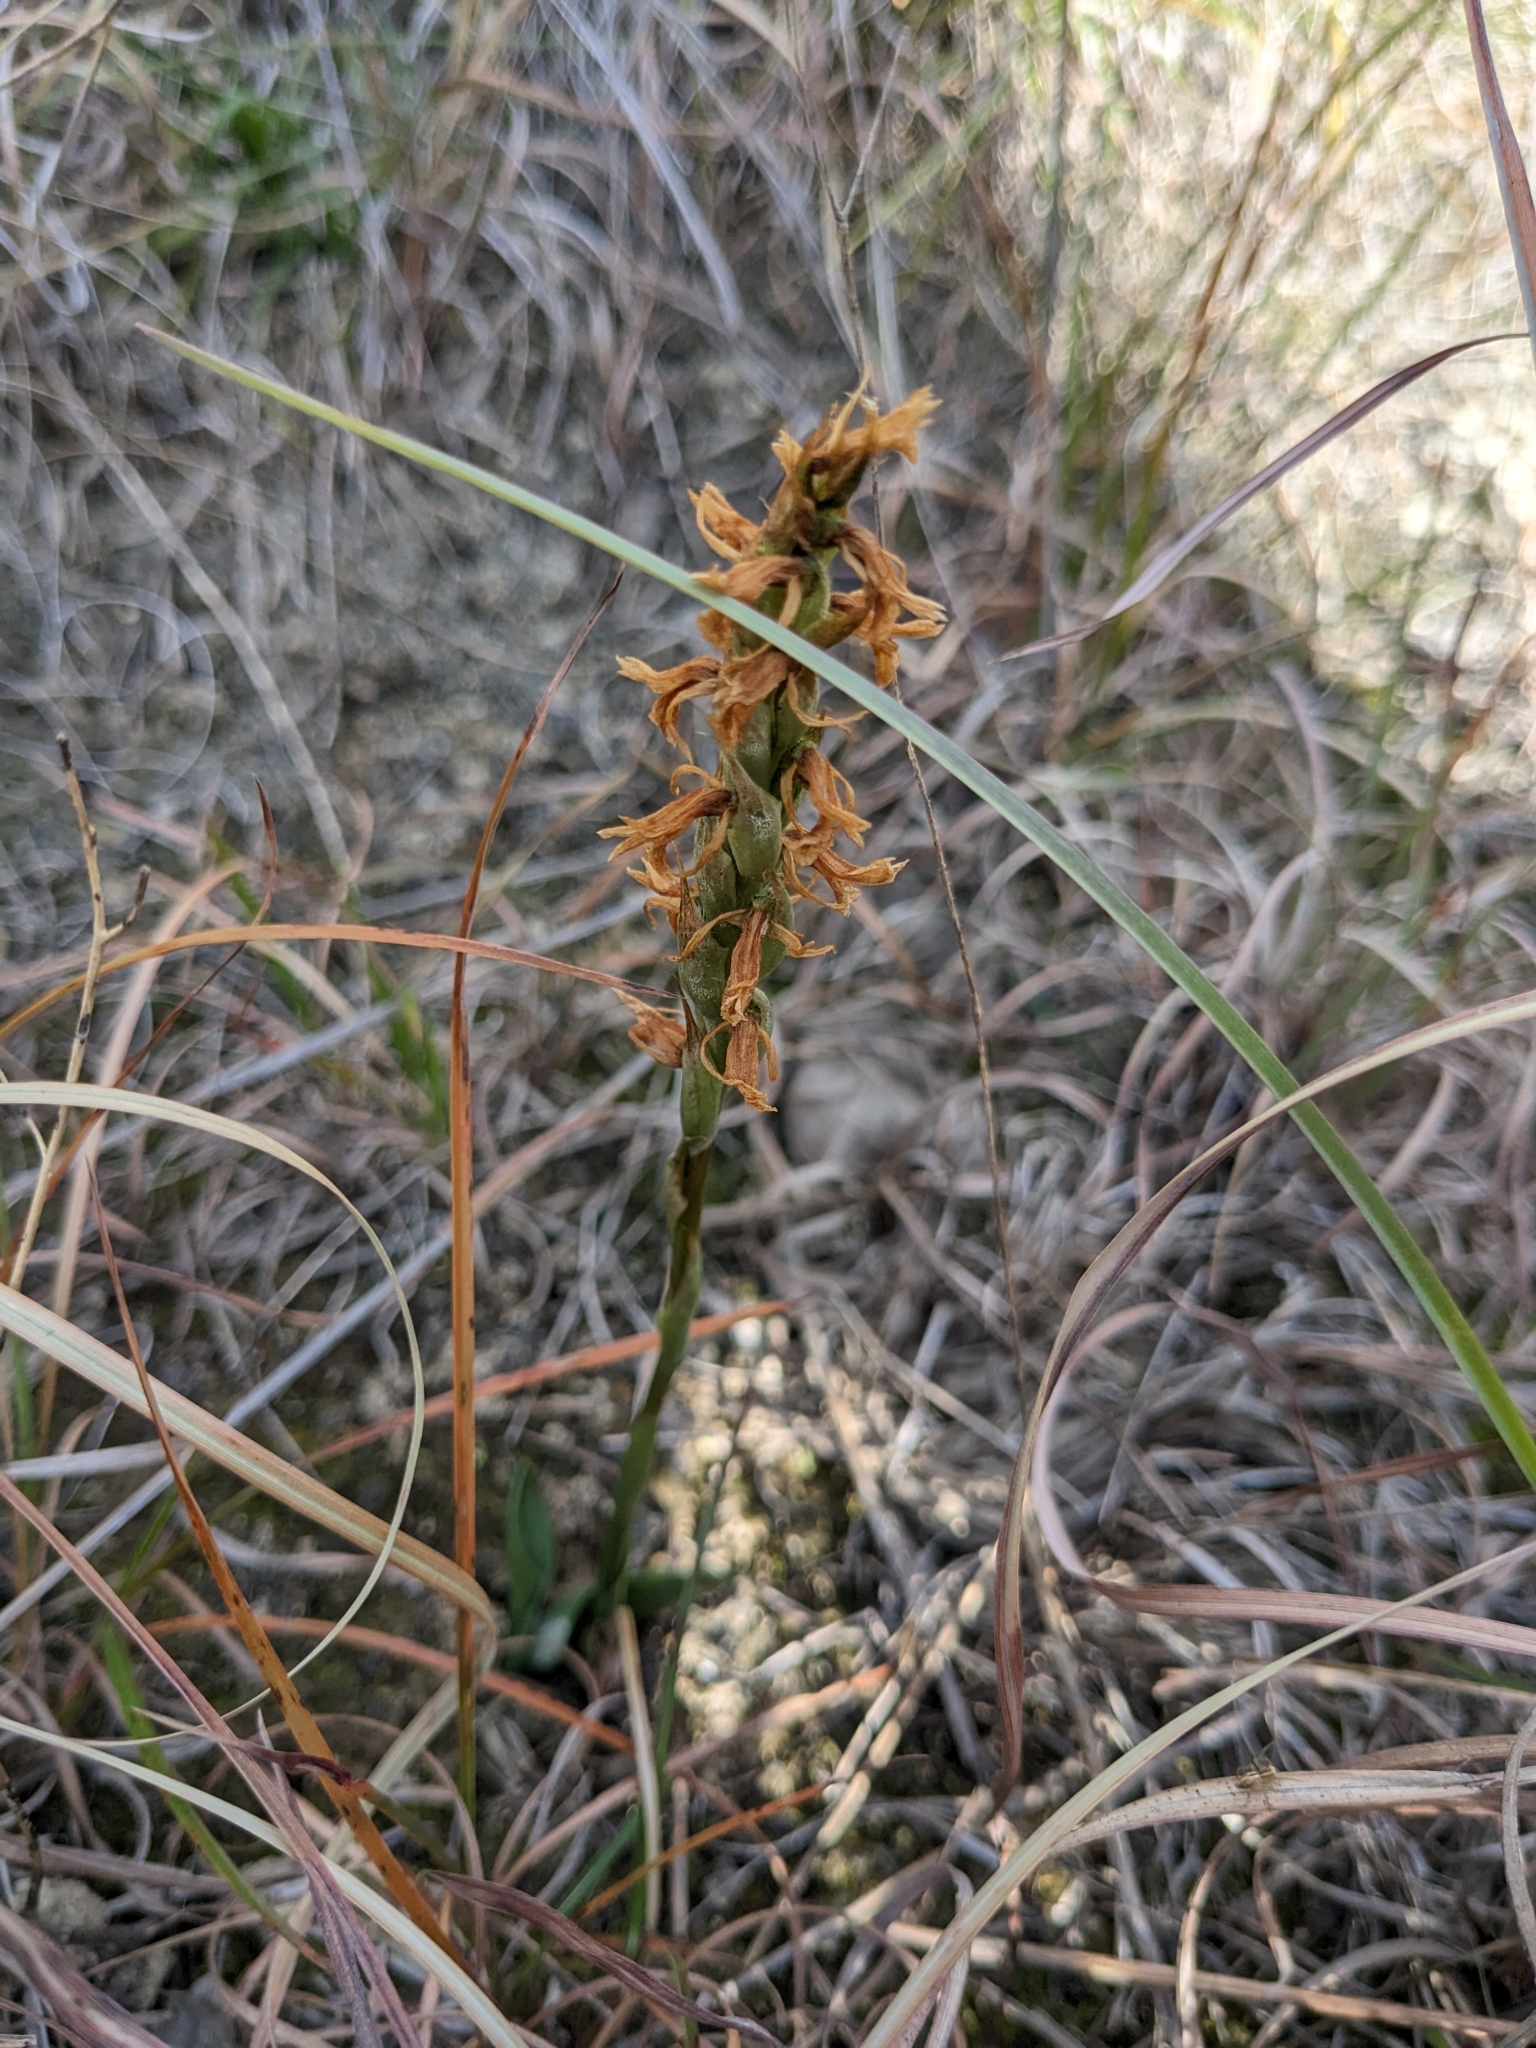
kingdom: Plantae
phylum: Tracheophyta
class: Liliopsida
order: Asparagales
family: Orchidaceae
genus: Spiranthes
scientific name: Spiranthes magnicamporum
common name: Great plains ladies'-tresses
